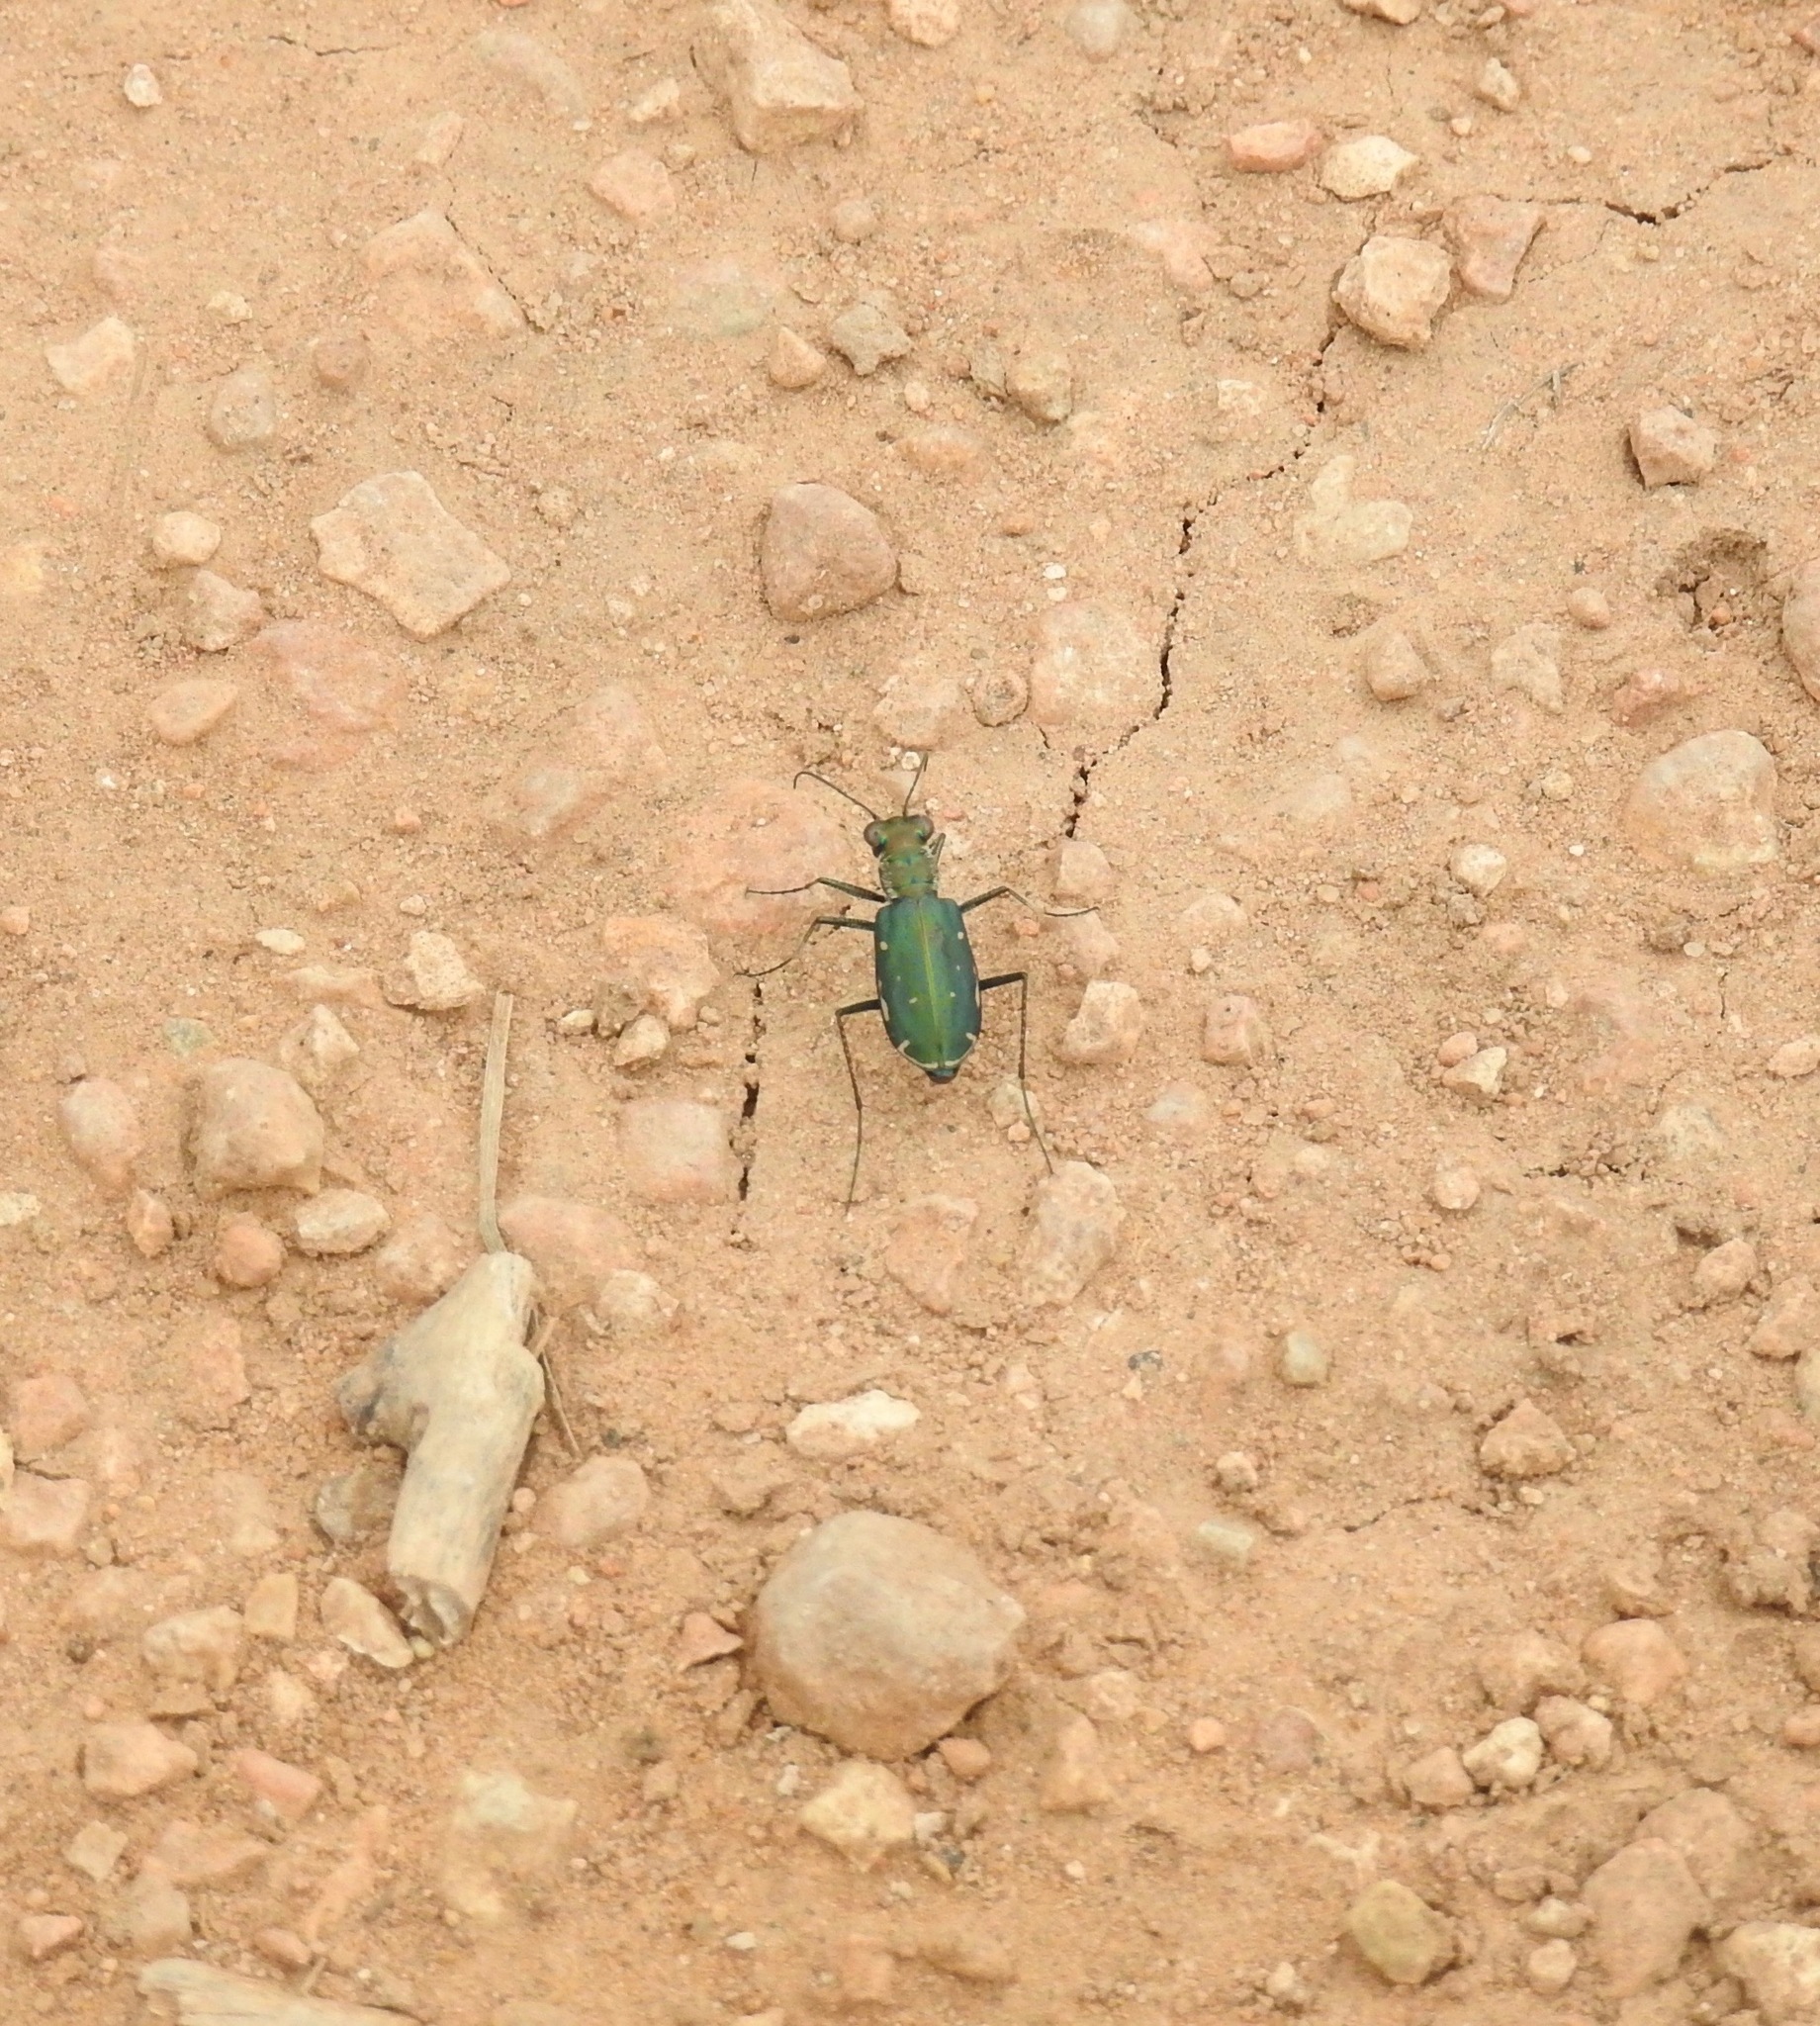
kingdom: Animalia
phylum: Arthropoda
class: Insecta
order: Coleoptera
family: Carabidae
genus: Cicindela
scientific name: Cicindela punctulata
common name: Punctured tiger beetle
